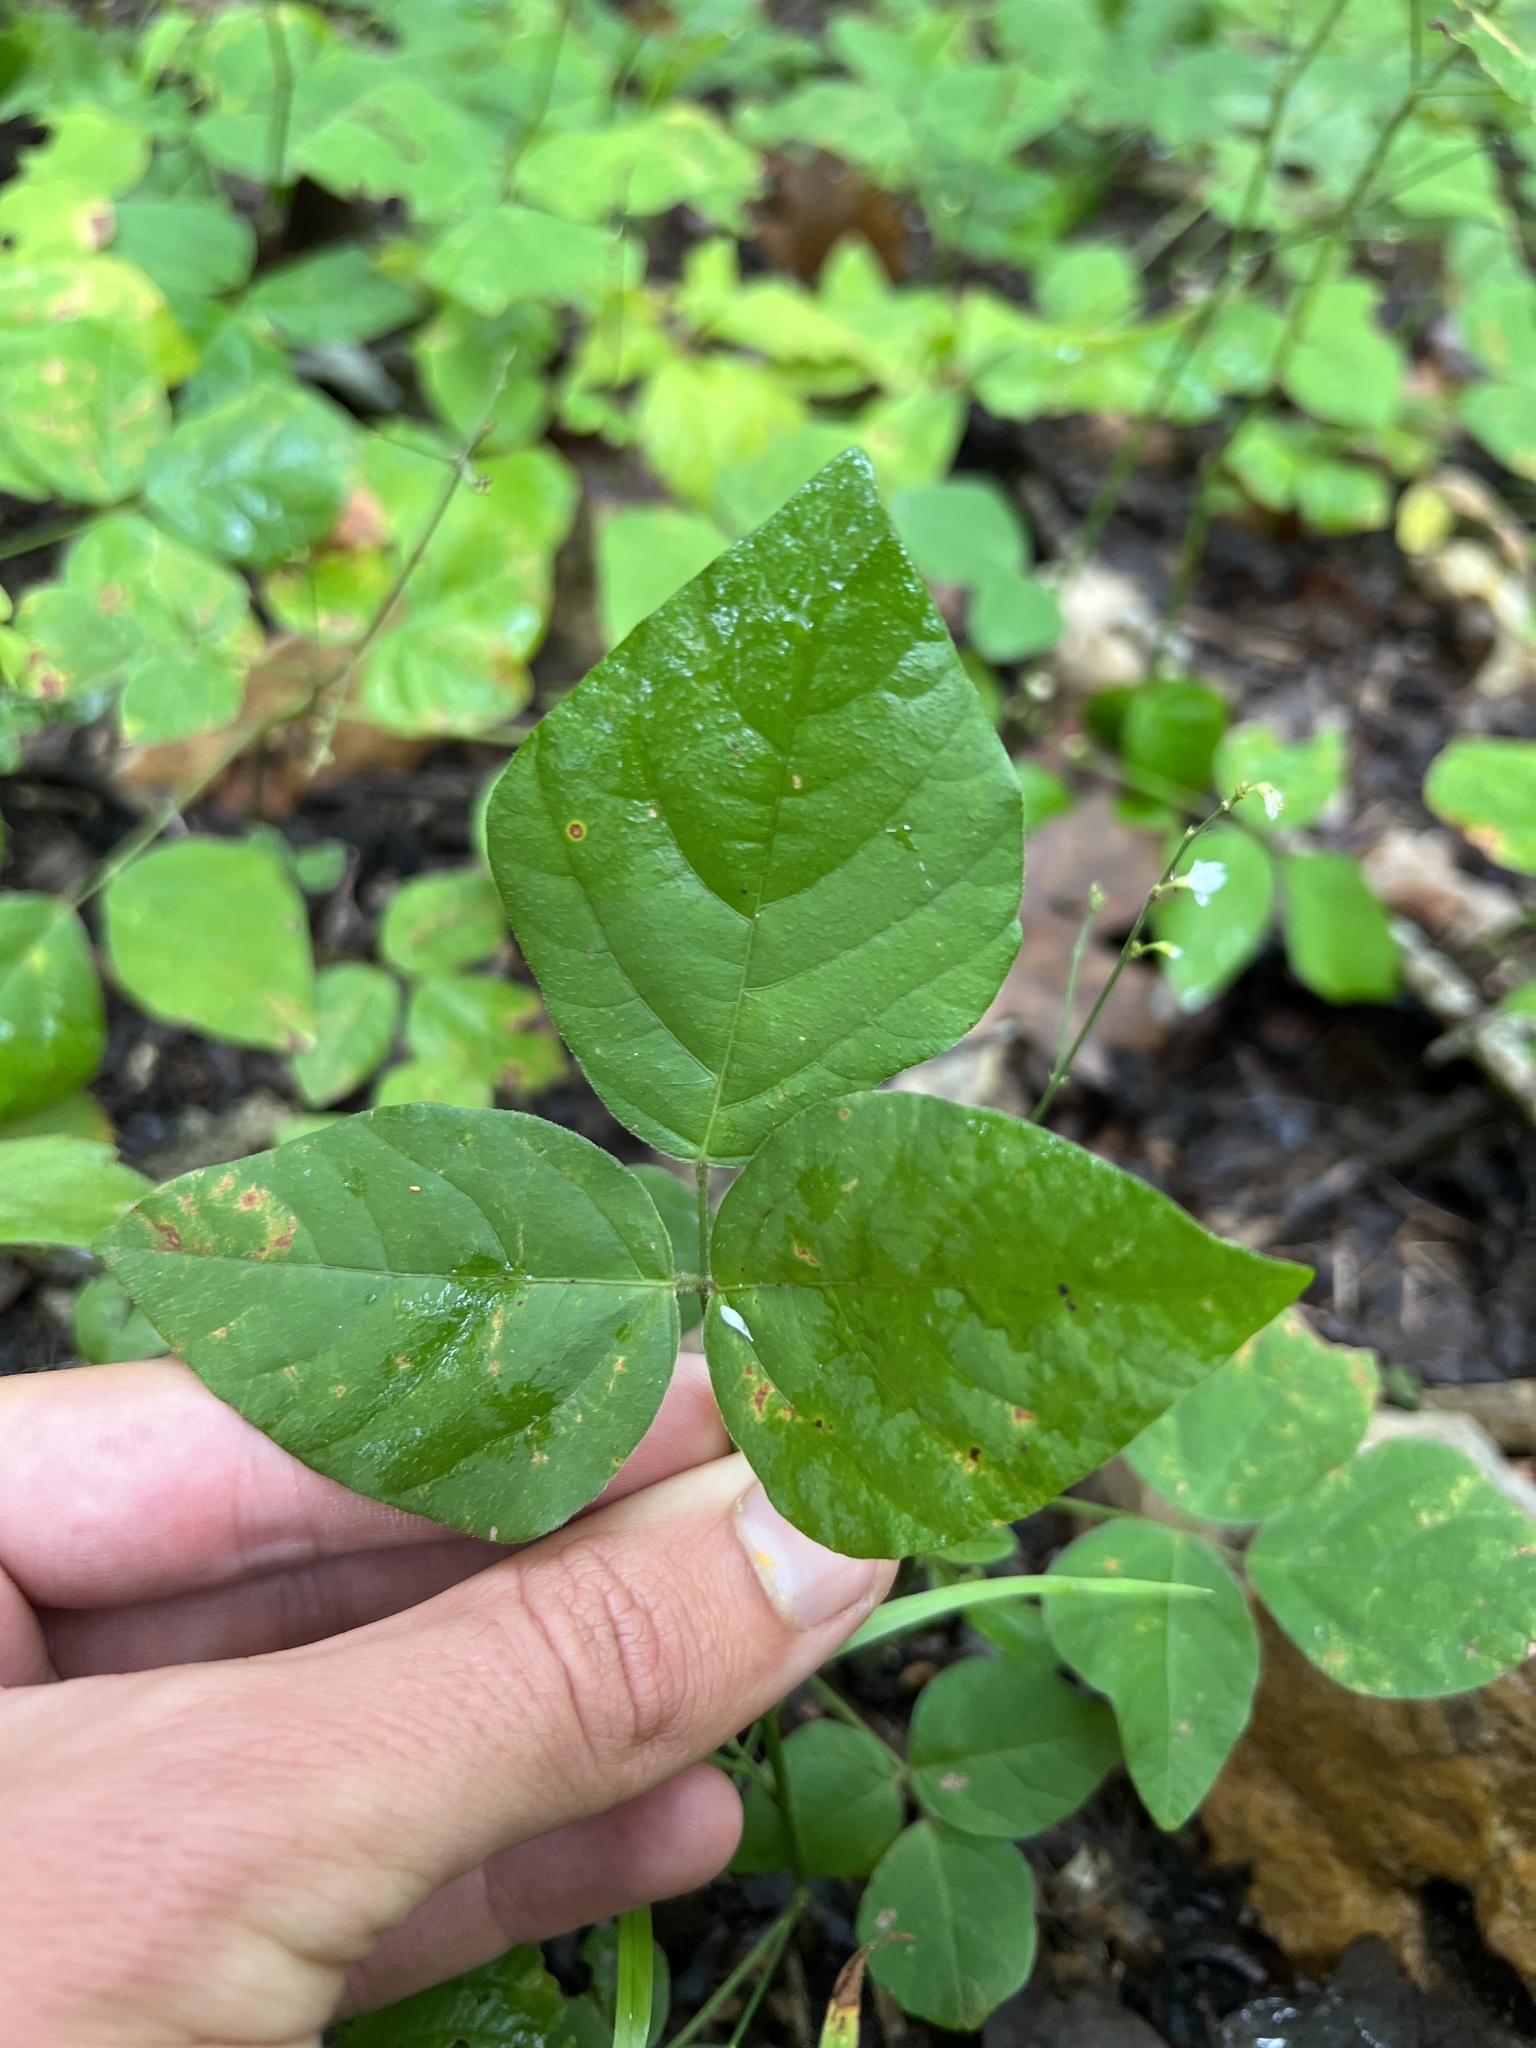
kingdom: Plantae
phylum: Tracheophyta
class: Magnoliopsida
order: Fabales
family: Fabaceae
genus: Hylodesmum
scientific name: Hylodesmum pauciflorum
